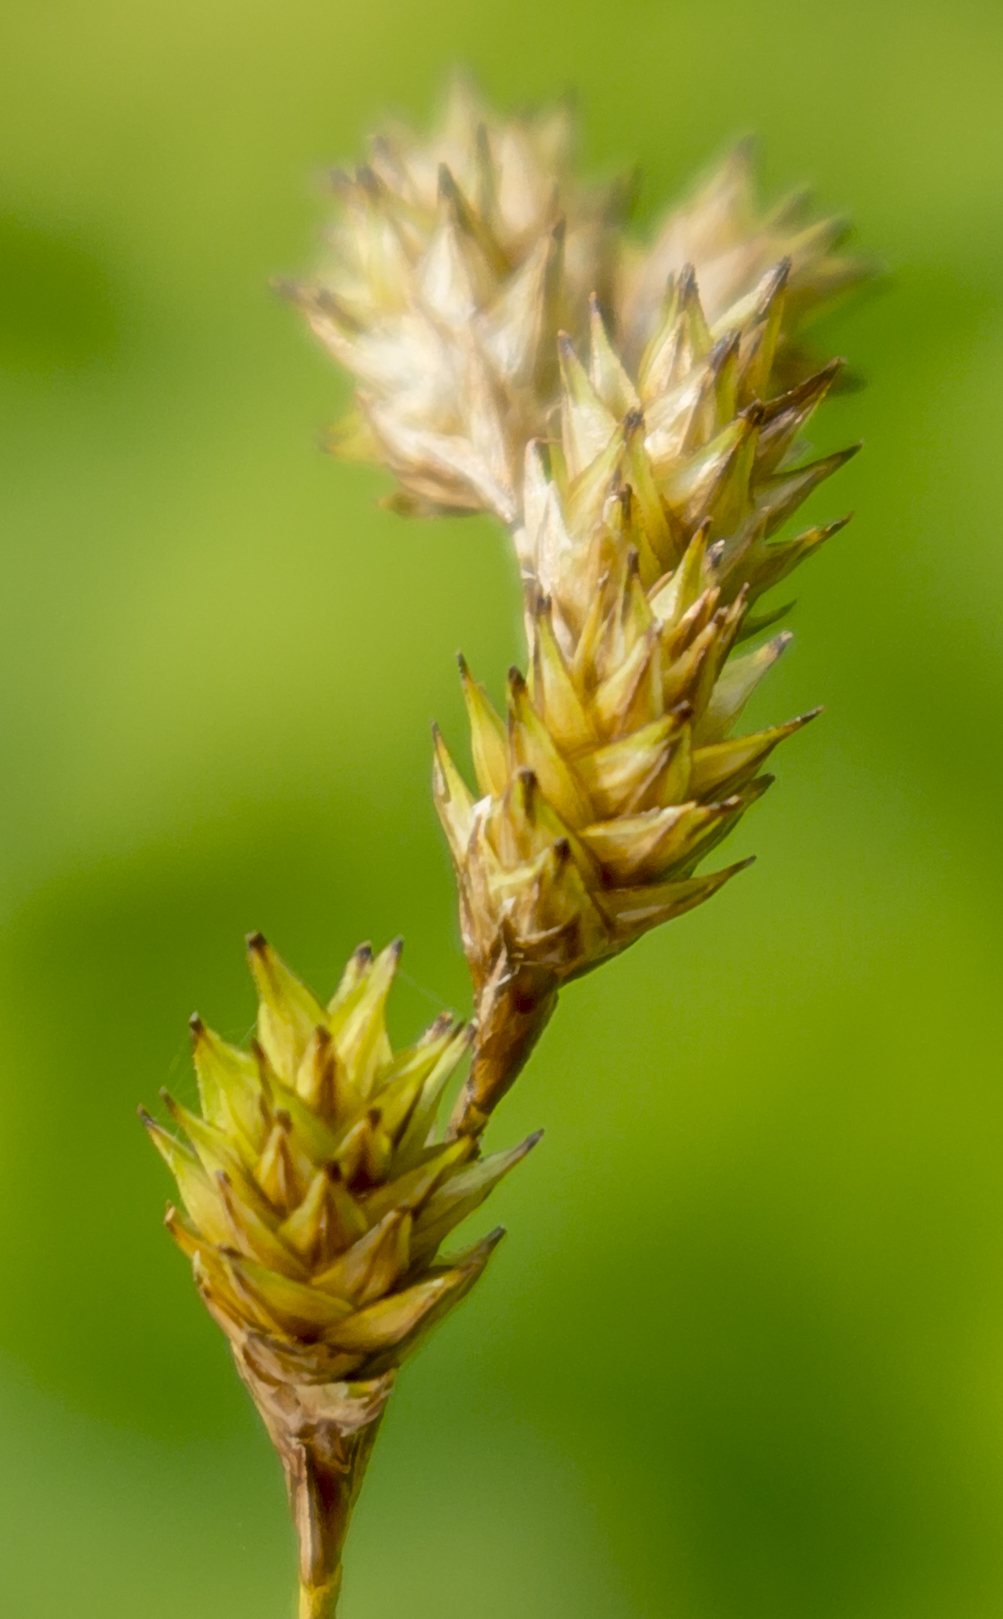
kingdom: Plantae
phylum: Tracheophyta
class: Liliopsida
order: Poales
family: Cyperaceae
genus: Carex
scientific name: Carex bicknellii
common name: Bicknell's sedge
